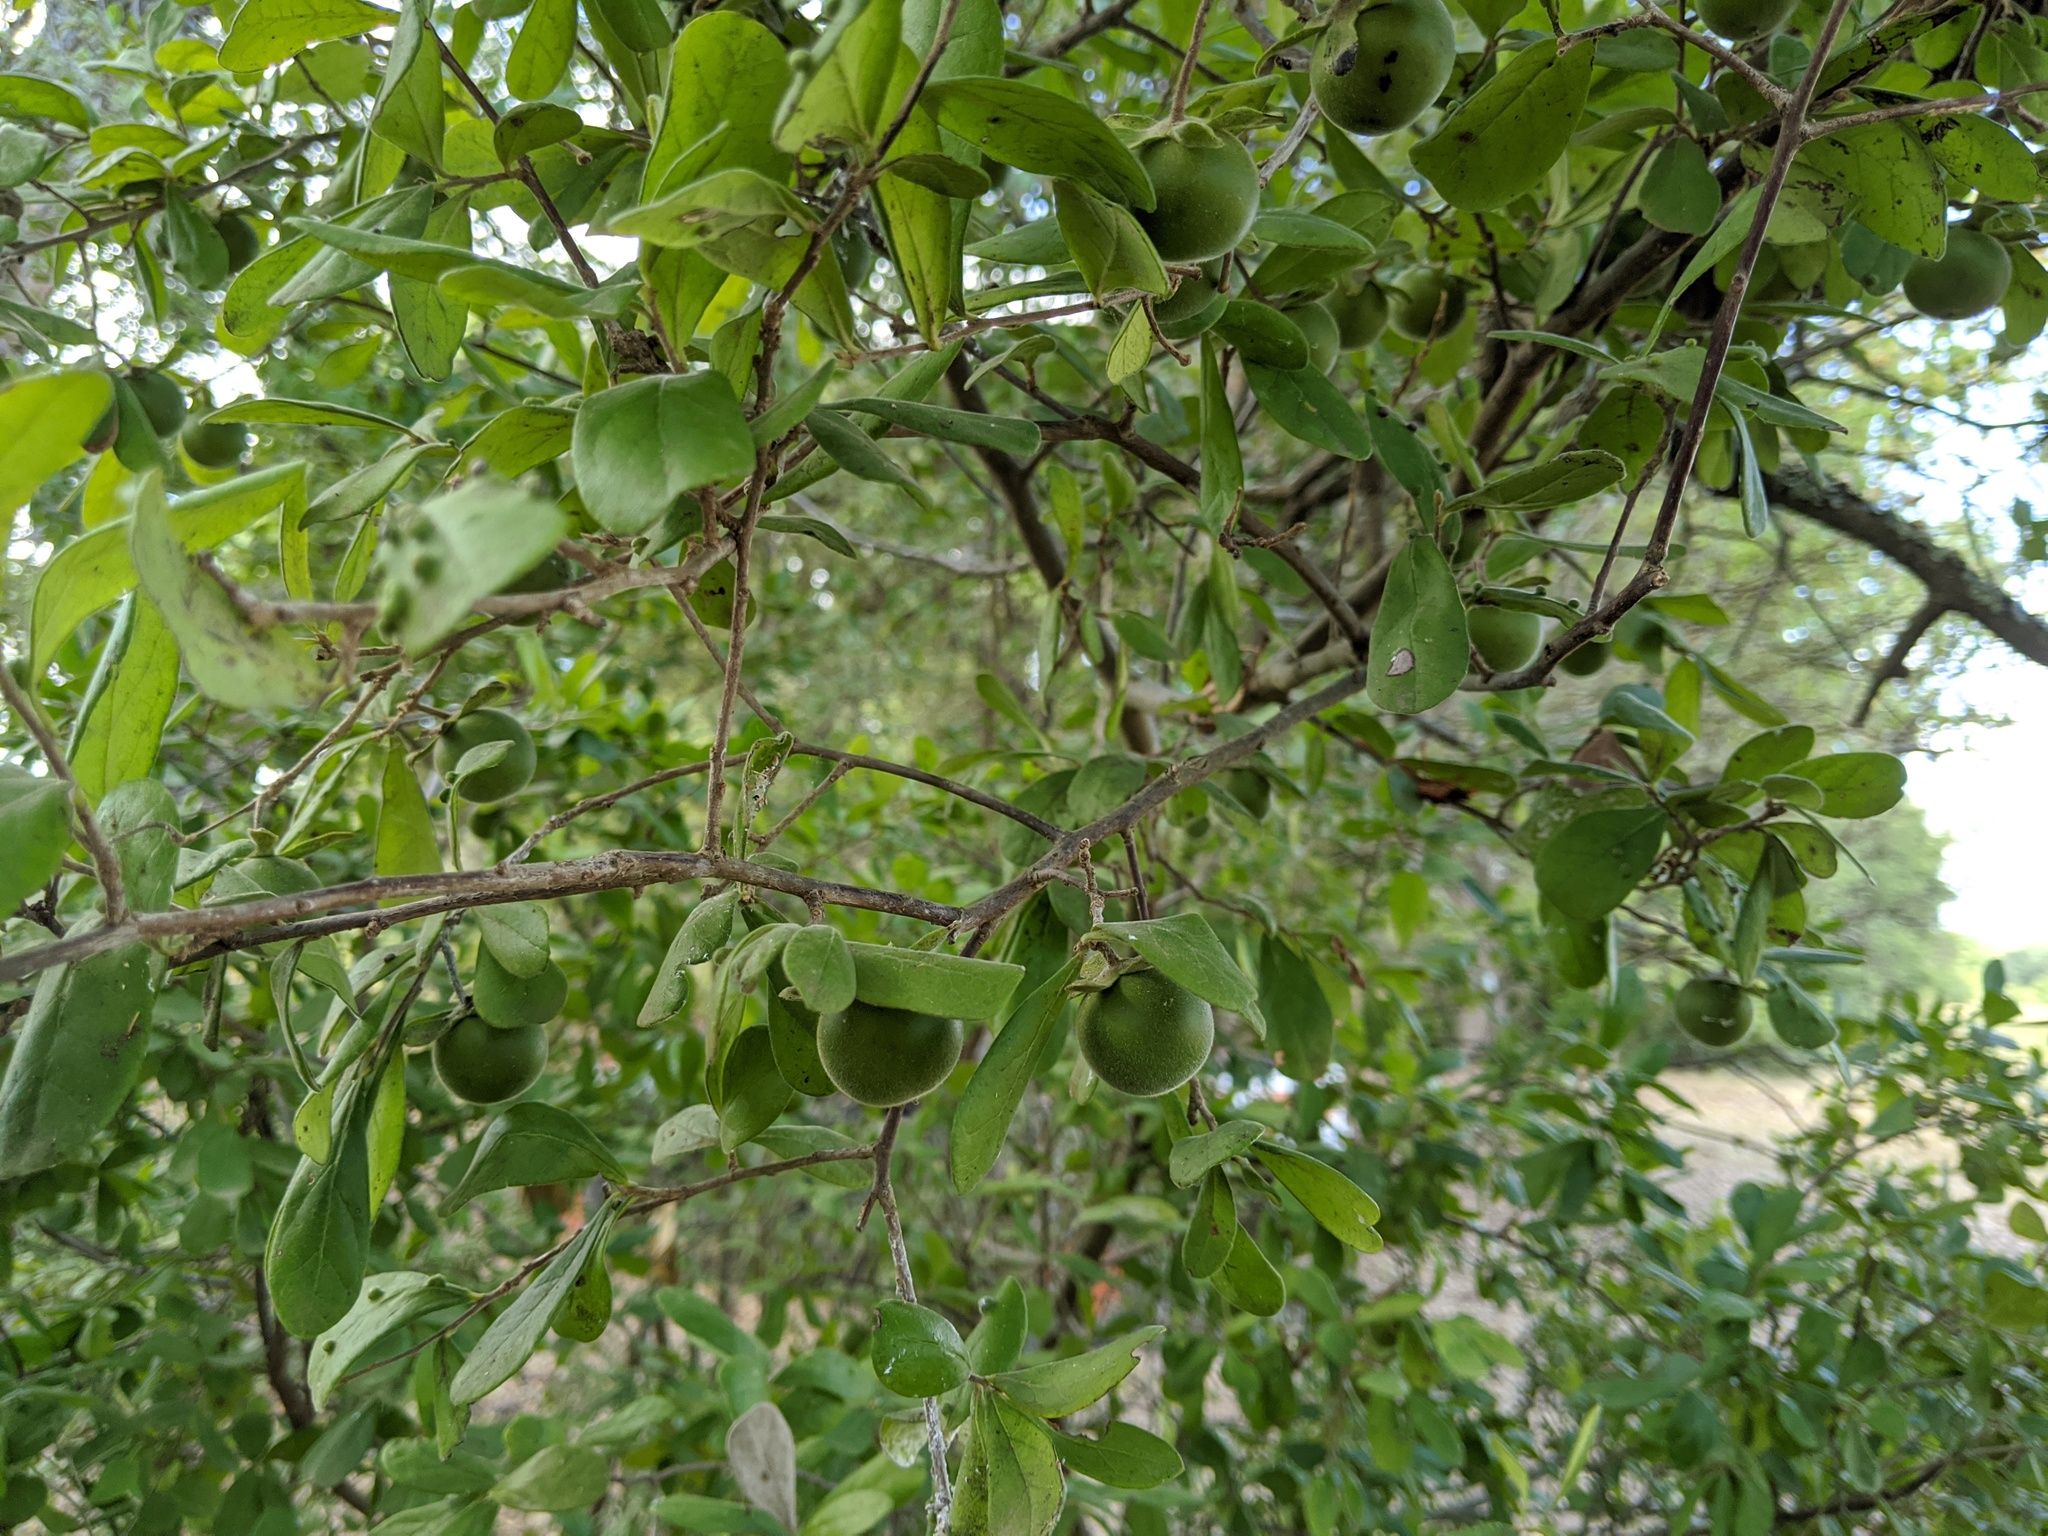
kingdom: Plantae
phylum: Tracheophyta
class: Magnoliopsida
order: Ericales
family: Ebenaceae
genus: Diospyros
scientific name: Diospyros texana
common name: Texas persimmon
